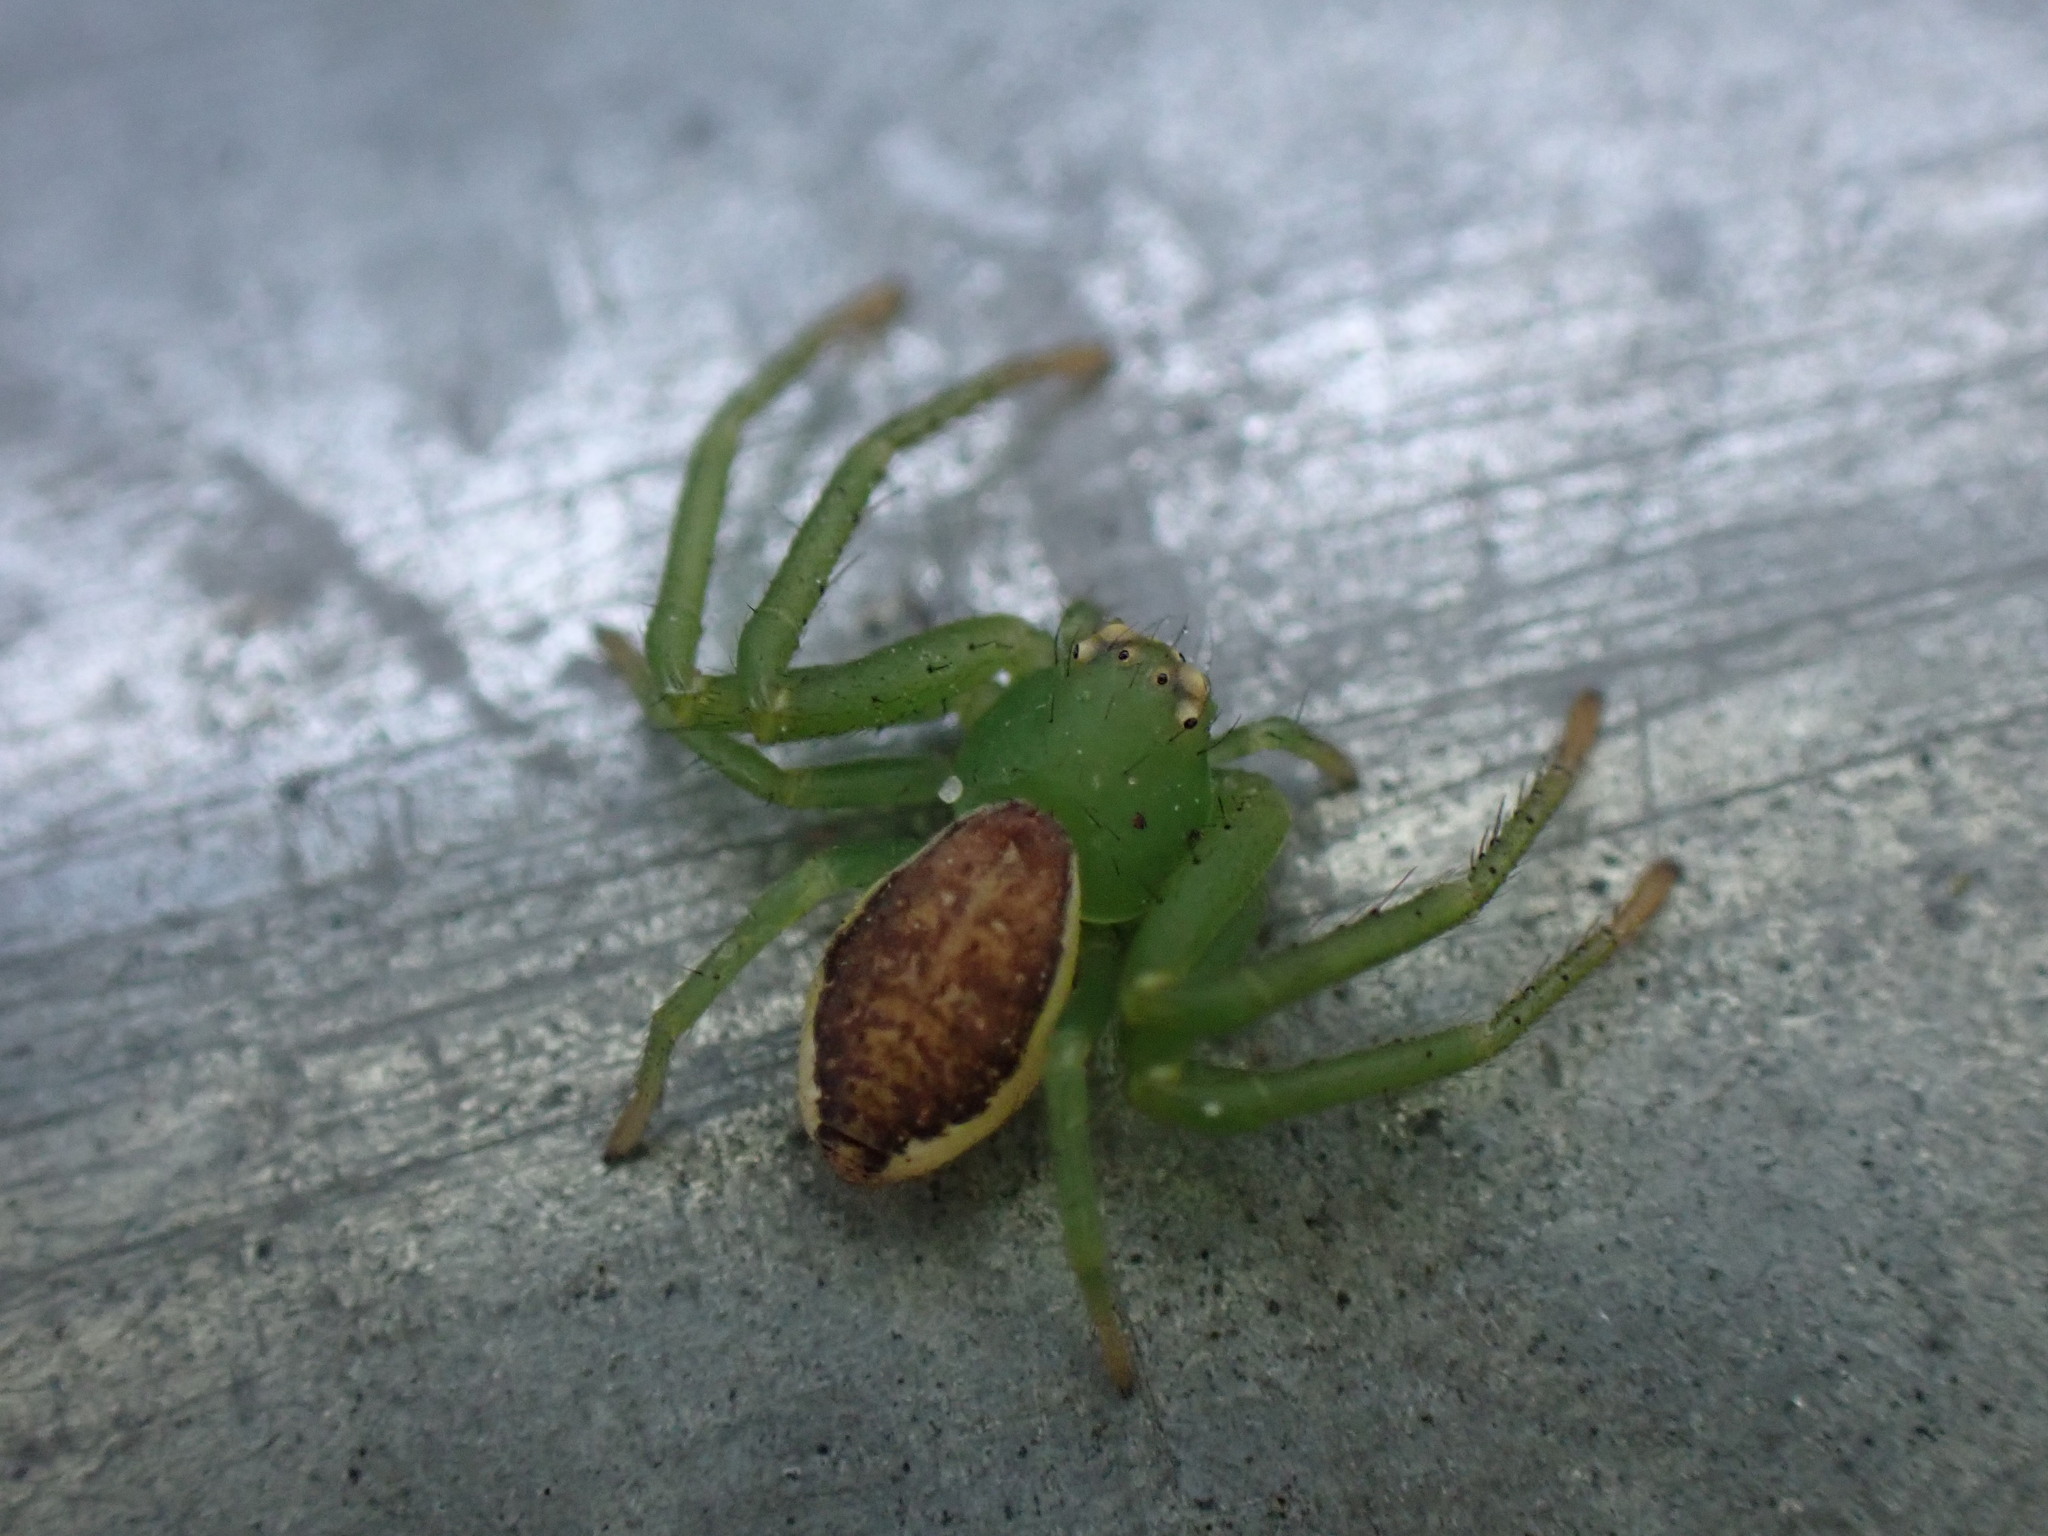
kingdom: Animalia
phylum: Arthropoda
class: Arachnida
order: Araneae
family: Thomisidae
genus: Diaea
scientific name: Diaea dorsata
